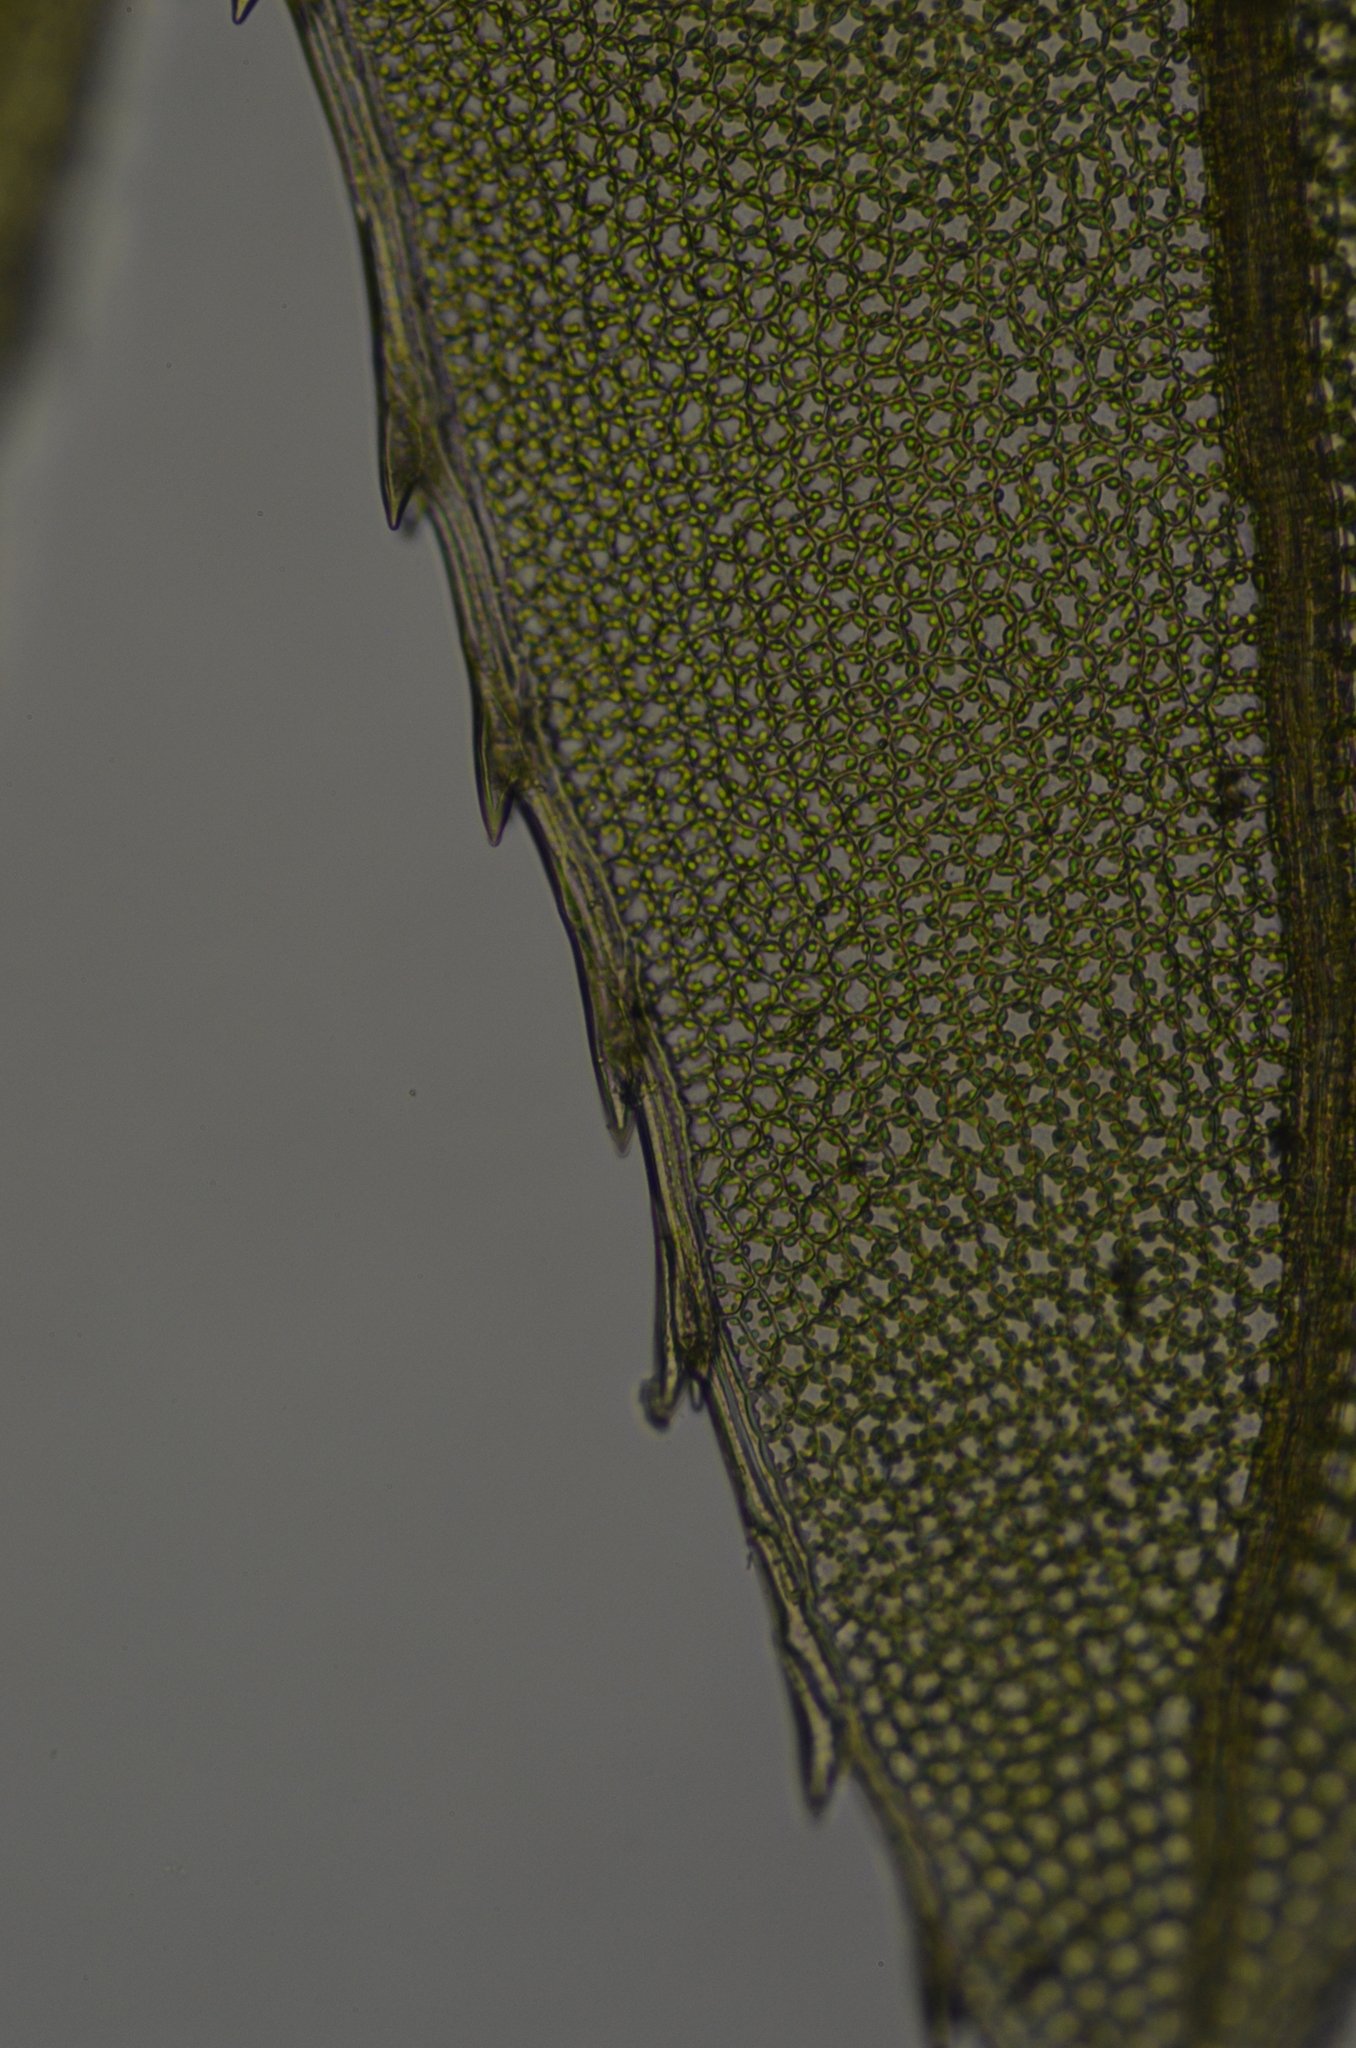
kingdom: Plantae
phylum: Bryophyta
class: Bryopsida
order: Bryales
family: Mniaceae
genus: Mnium
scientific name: Mnium lycopodioides
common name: Clubmoss leafy moss
